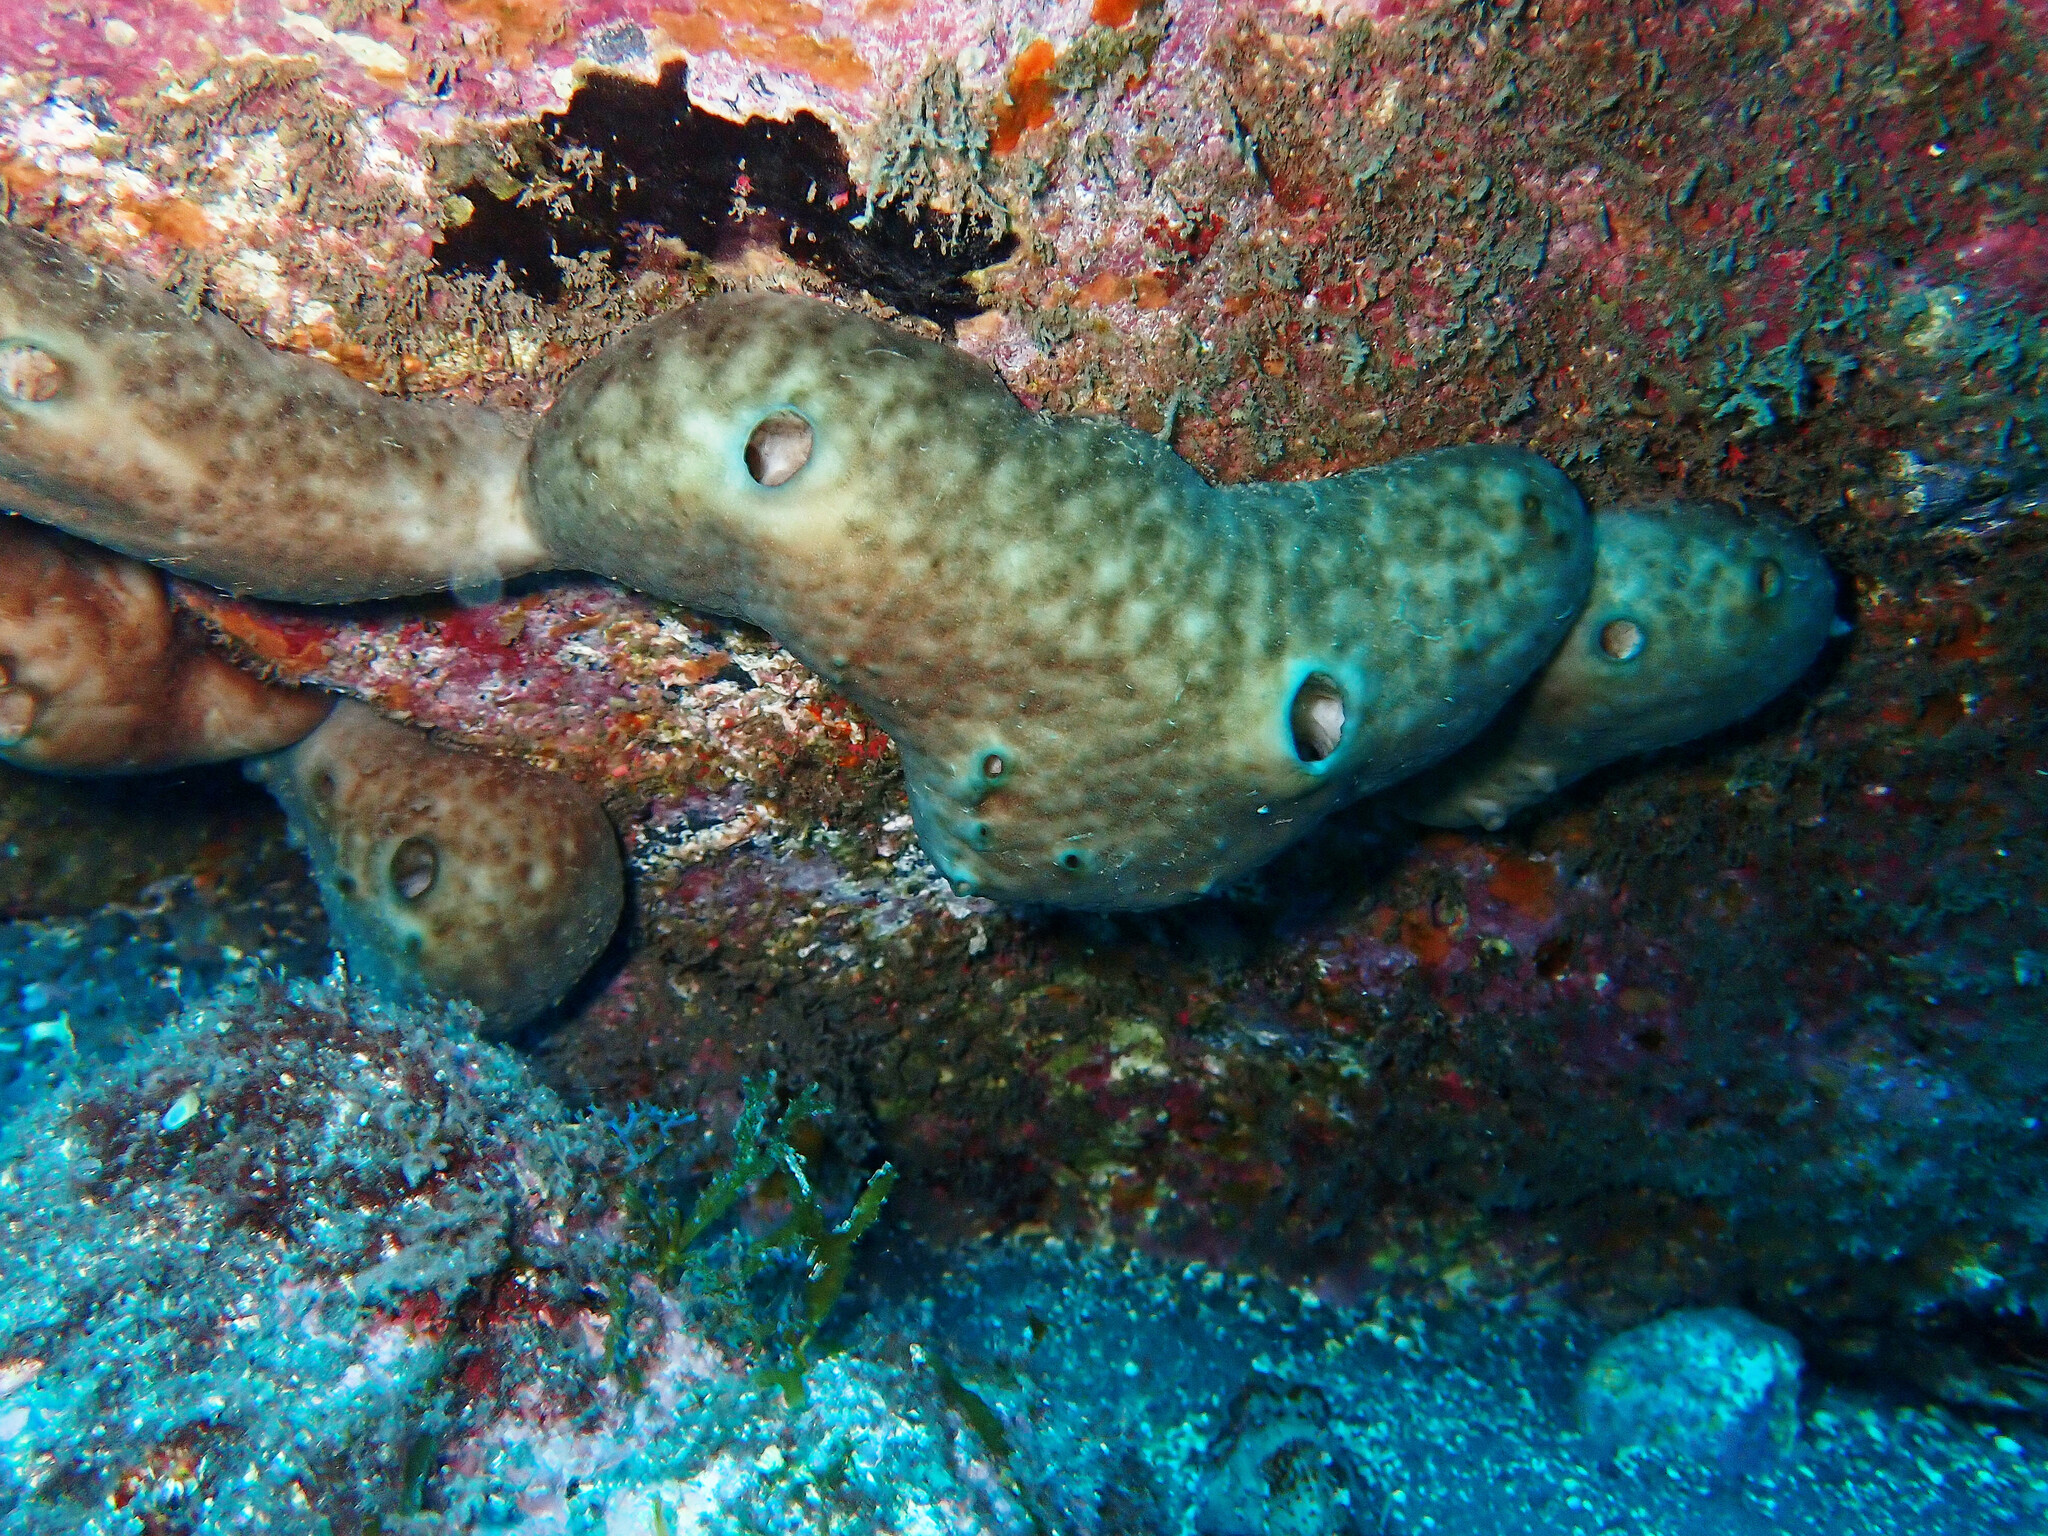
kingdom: Animalia
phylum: Porifera
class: Demospongiae
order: Chondrosiida
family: Chondrosiidae
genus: Chondrosia
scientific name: Chondrosia reniformis
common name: Chicken liver sponge
